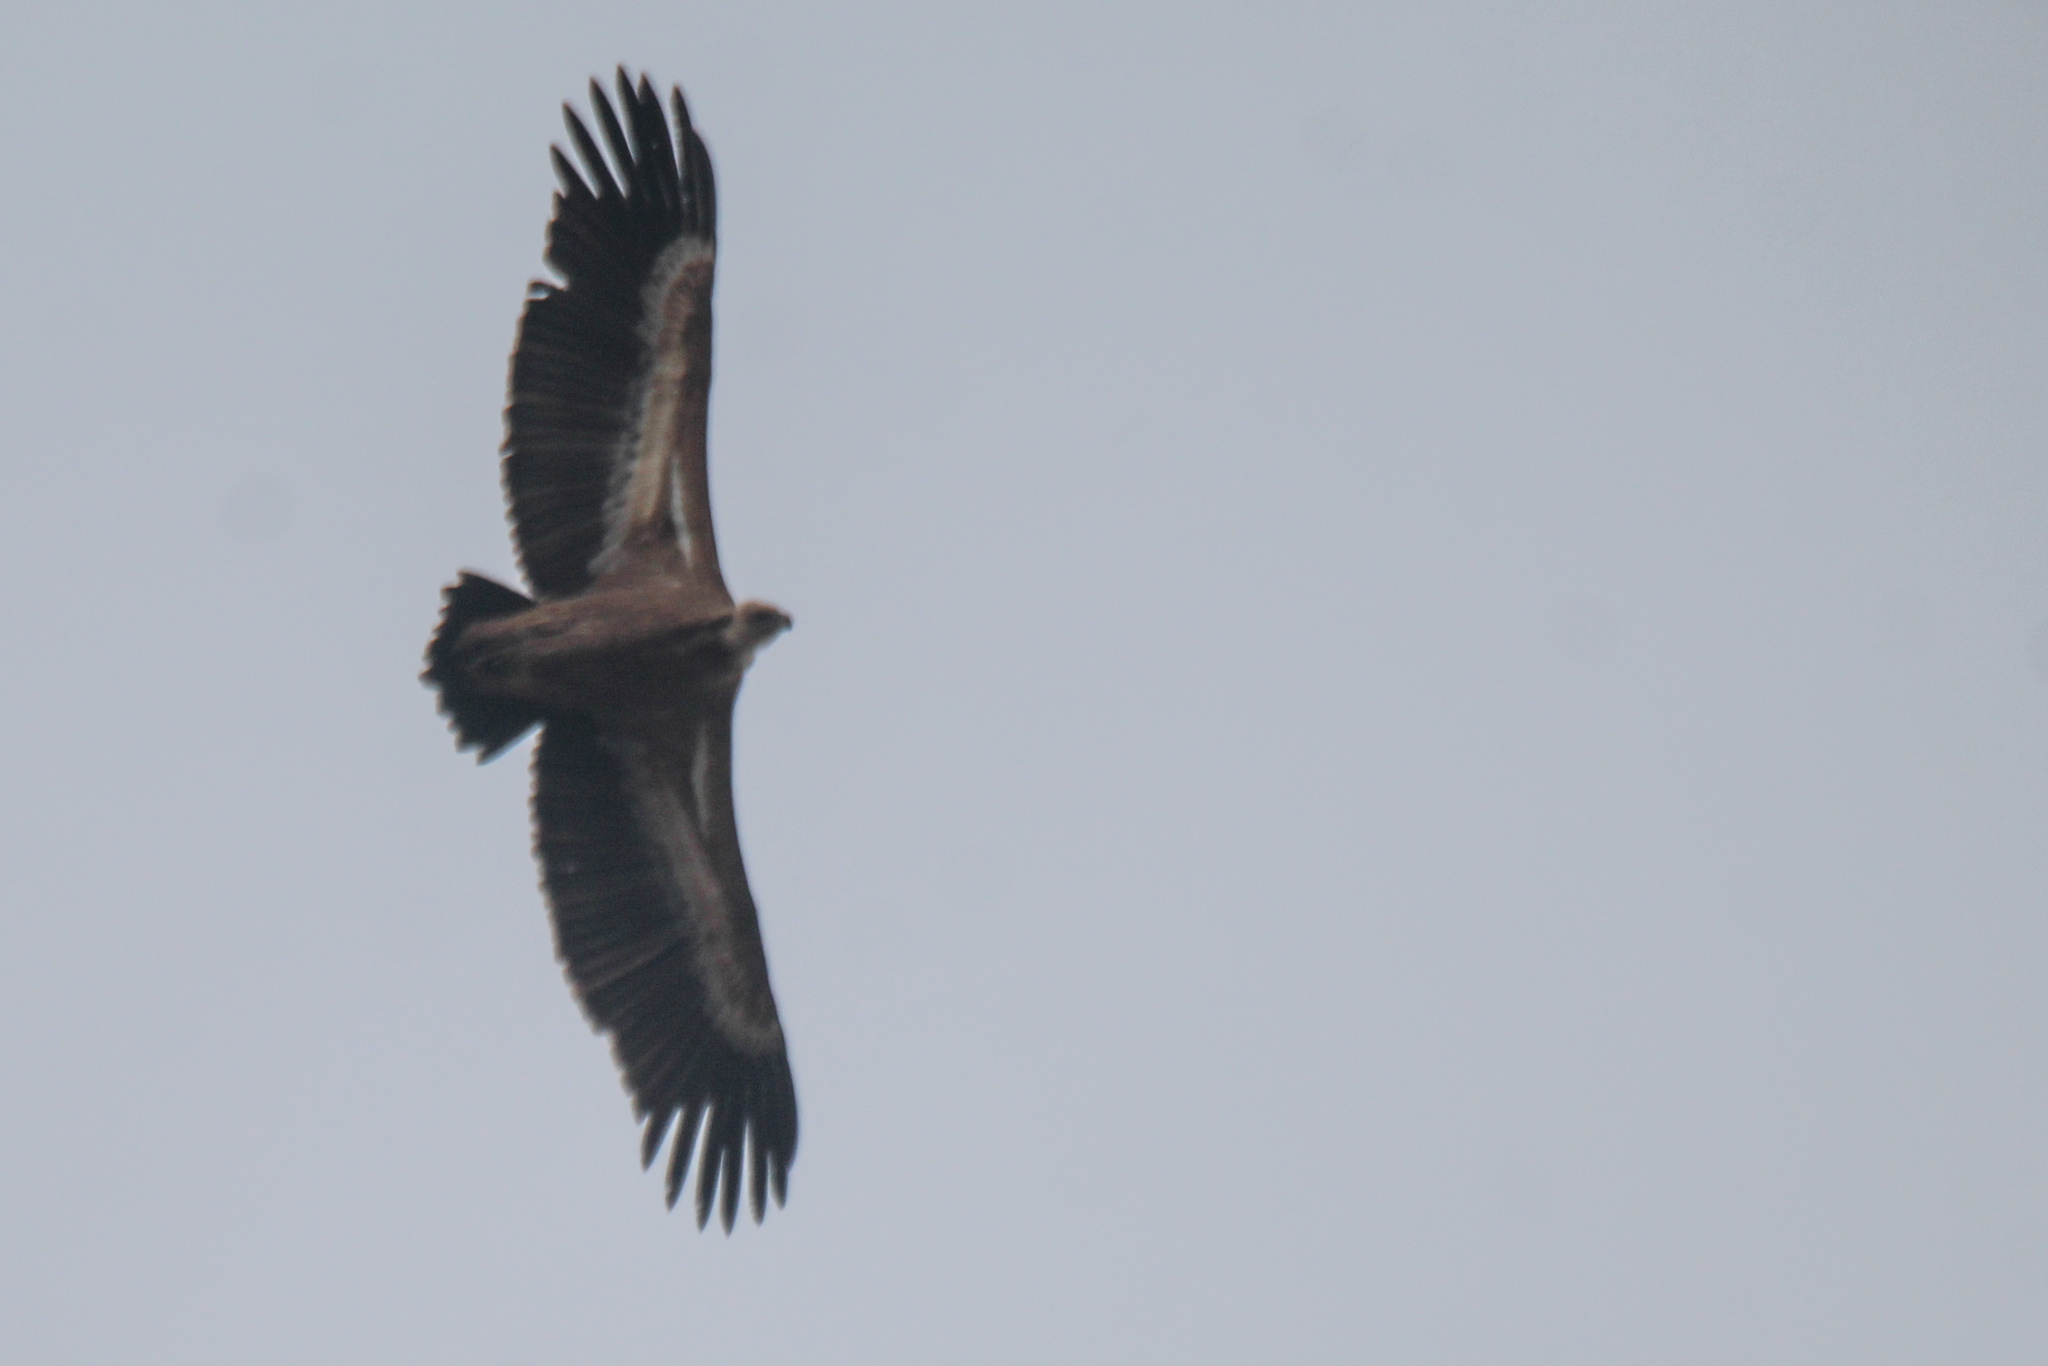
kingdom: Animalia
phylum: Chordata
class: Aves
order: Accipitriformes
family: Accipitridae
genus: Gyps
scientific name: Gyps fulvus
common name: Griffon vulture
